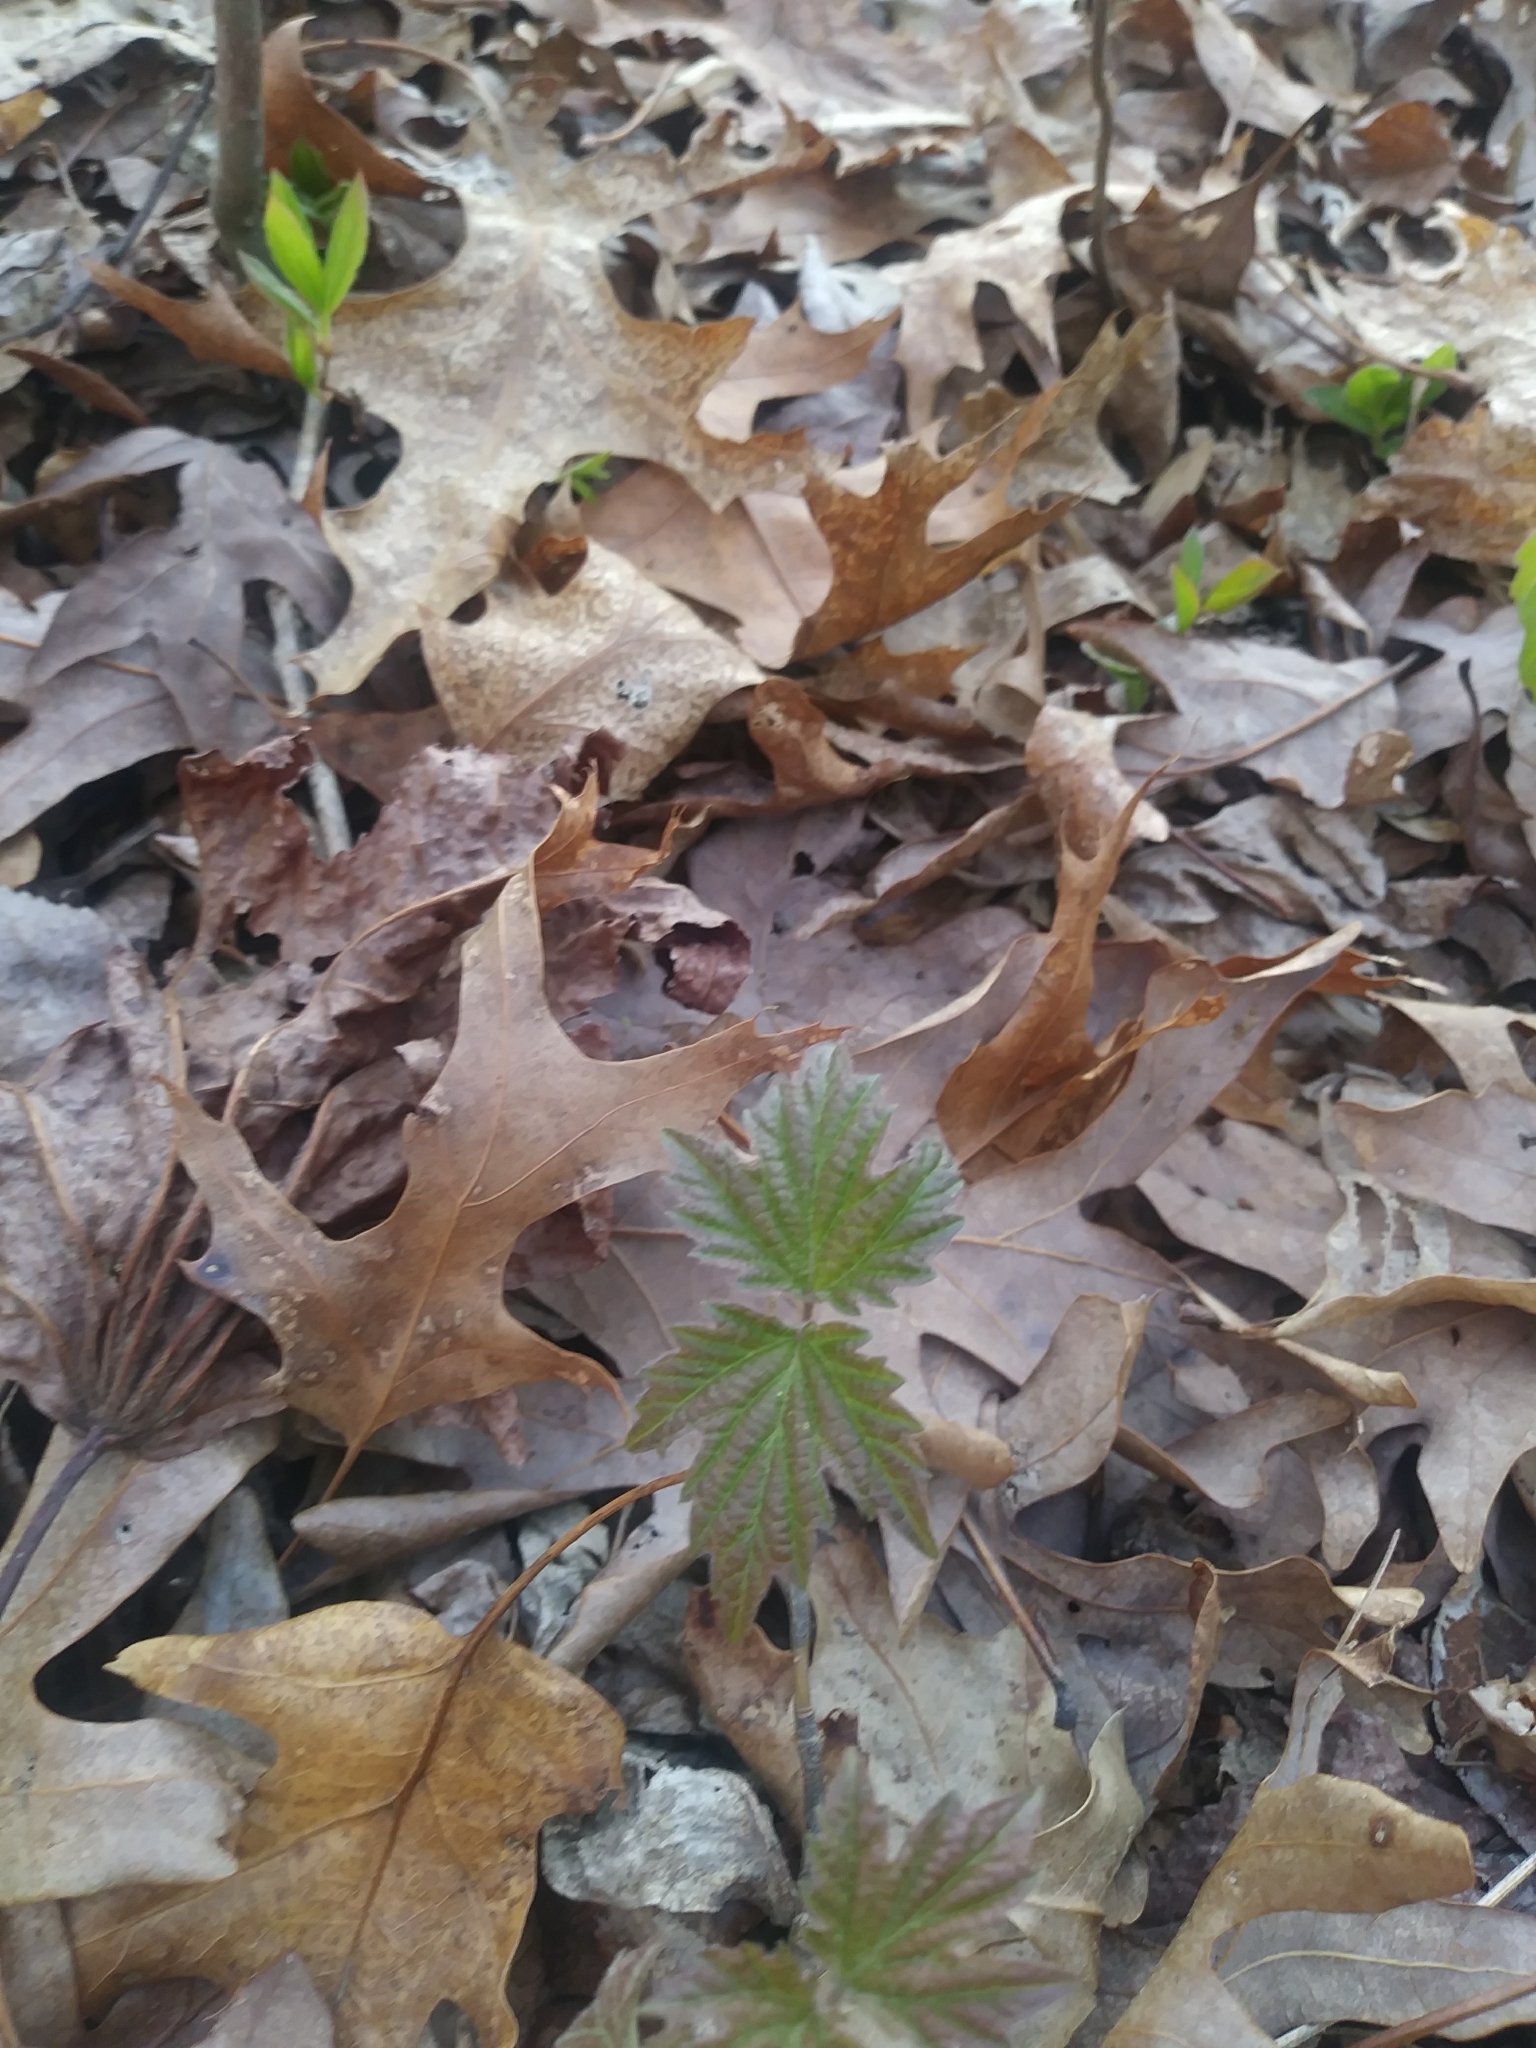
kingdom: Plantae
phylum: Tracheophyta
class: Magnoliopsida
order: Dipsacales
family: Viburnaceae
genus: Viburnum
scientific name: Viburnum acerifolium
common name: Dockmackie
